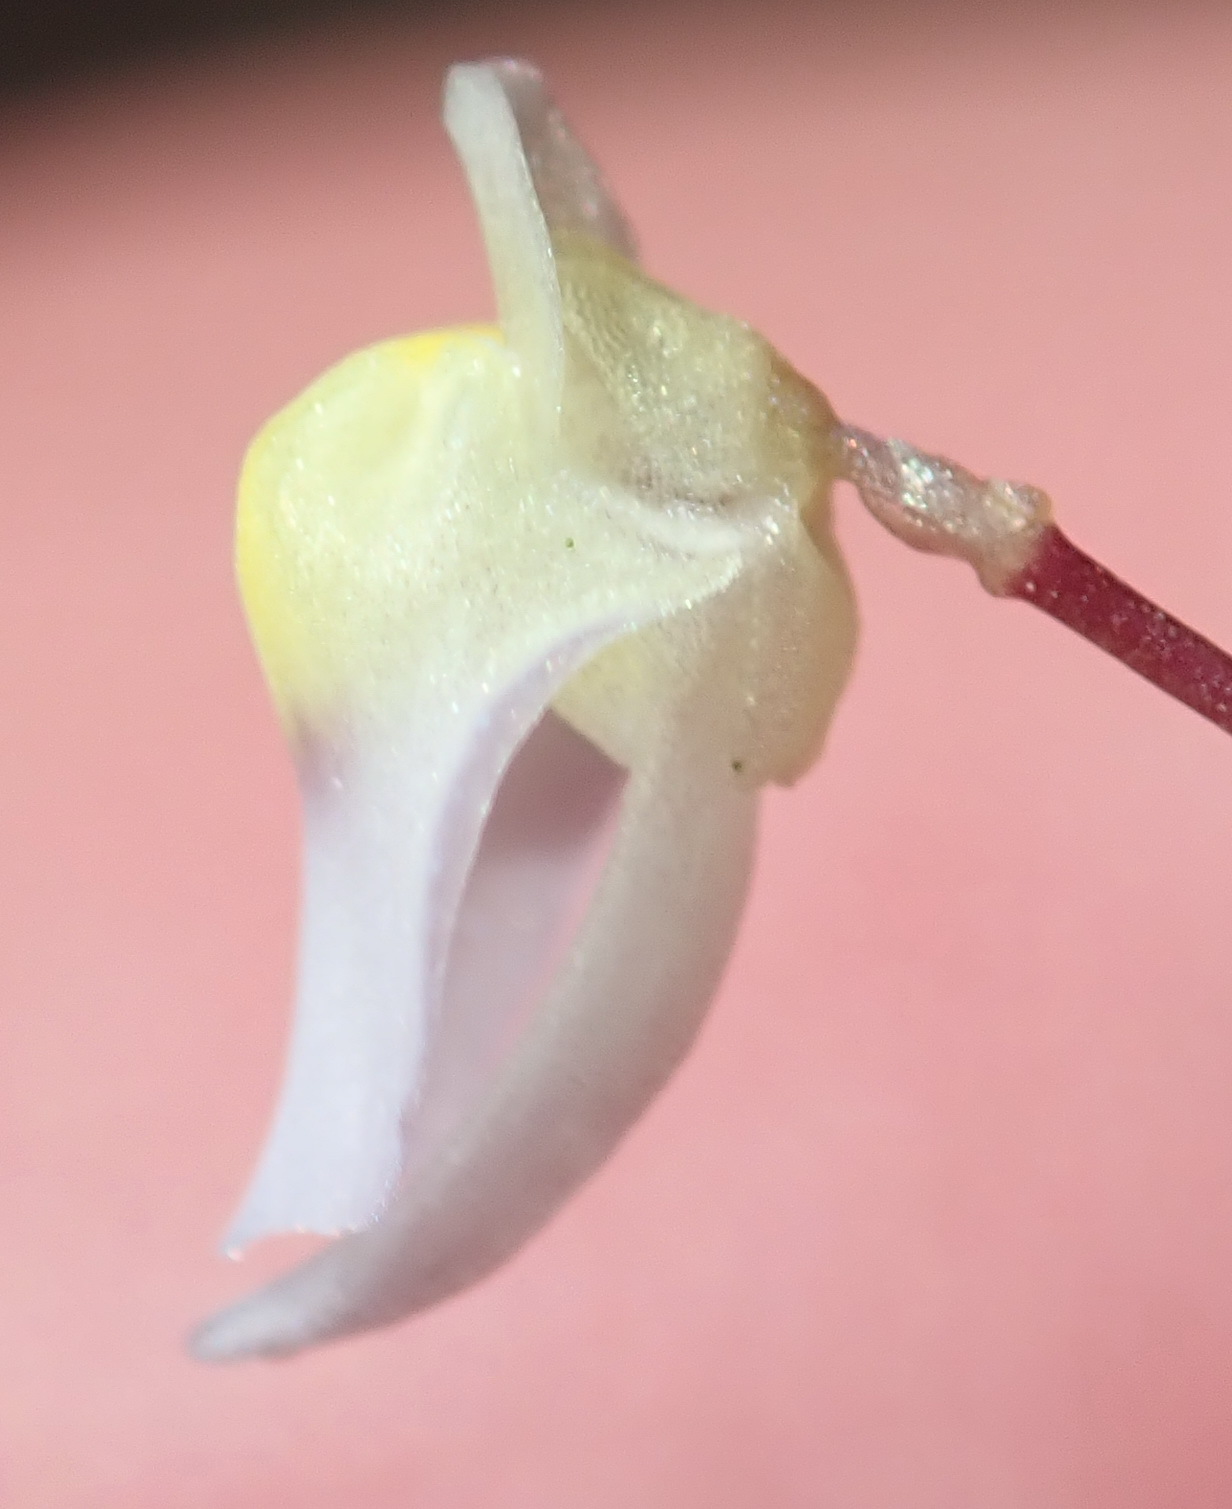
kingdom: Plantae
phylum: Tracheophyta
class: Magnoliopsida
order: Lamiales
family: Lentibulariaceae
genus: Utricularia
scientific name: Utricularia bisquamata
